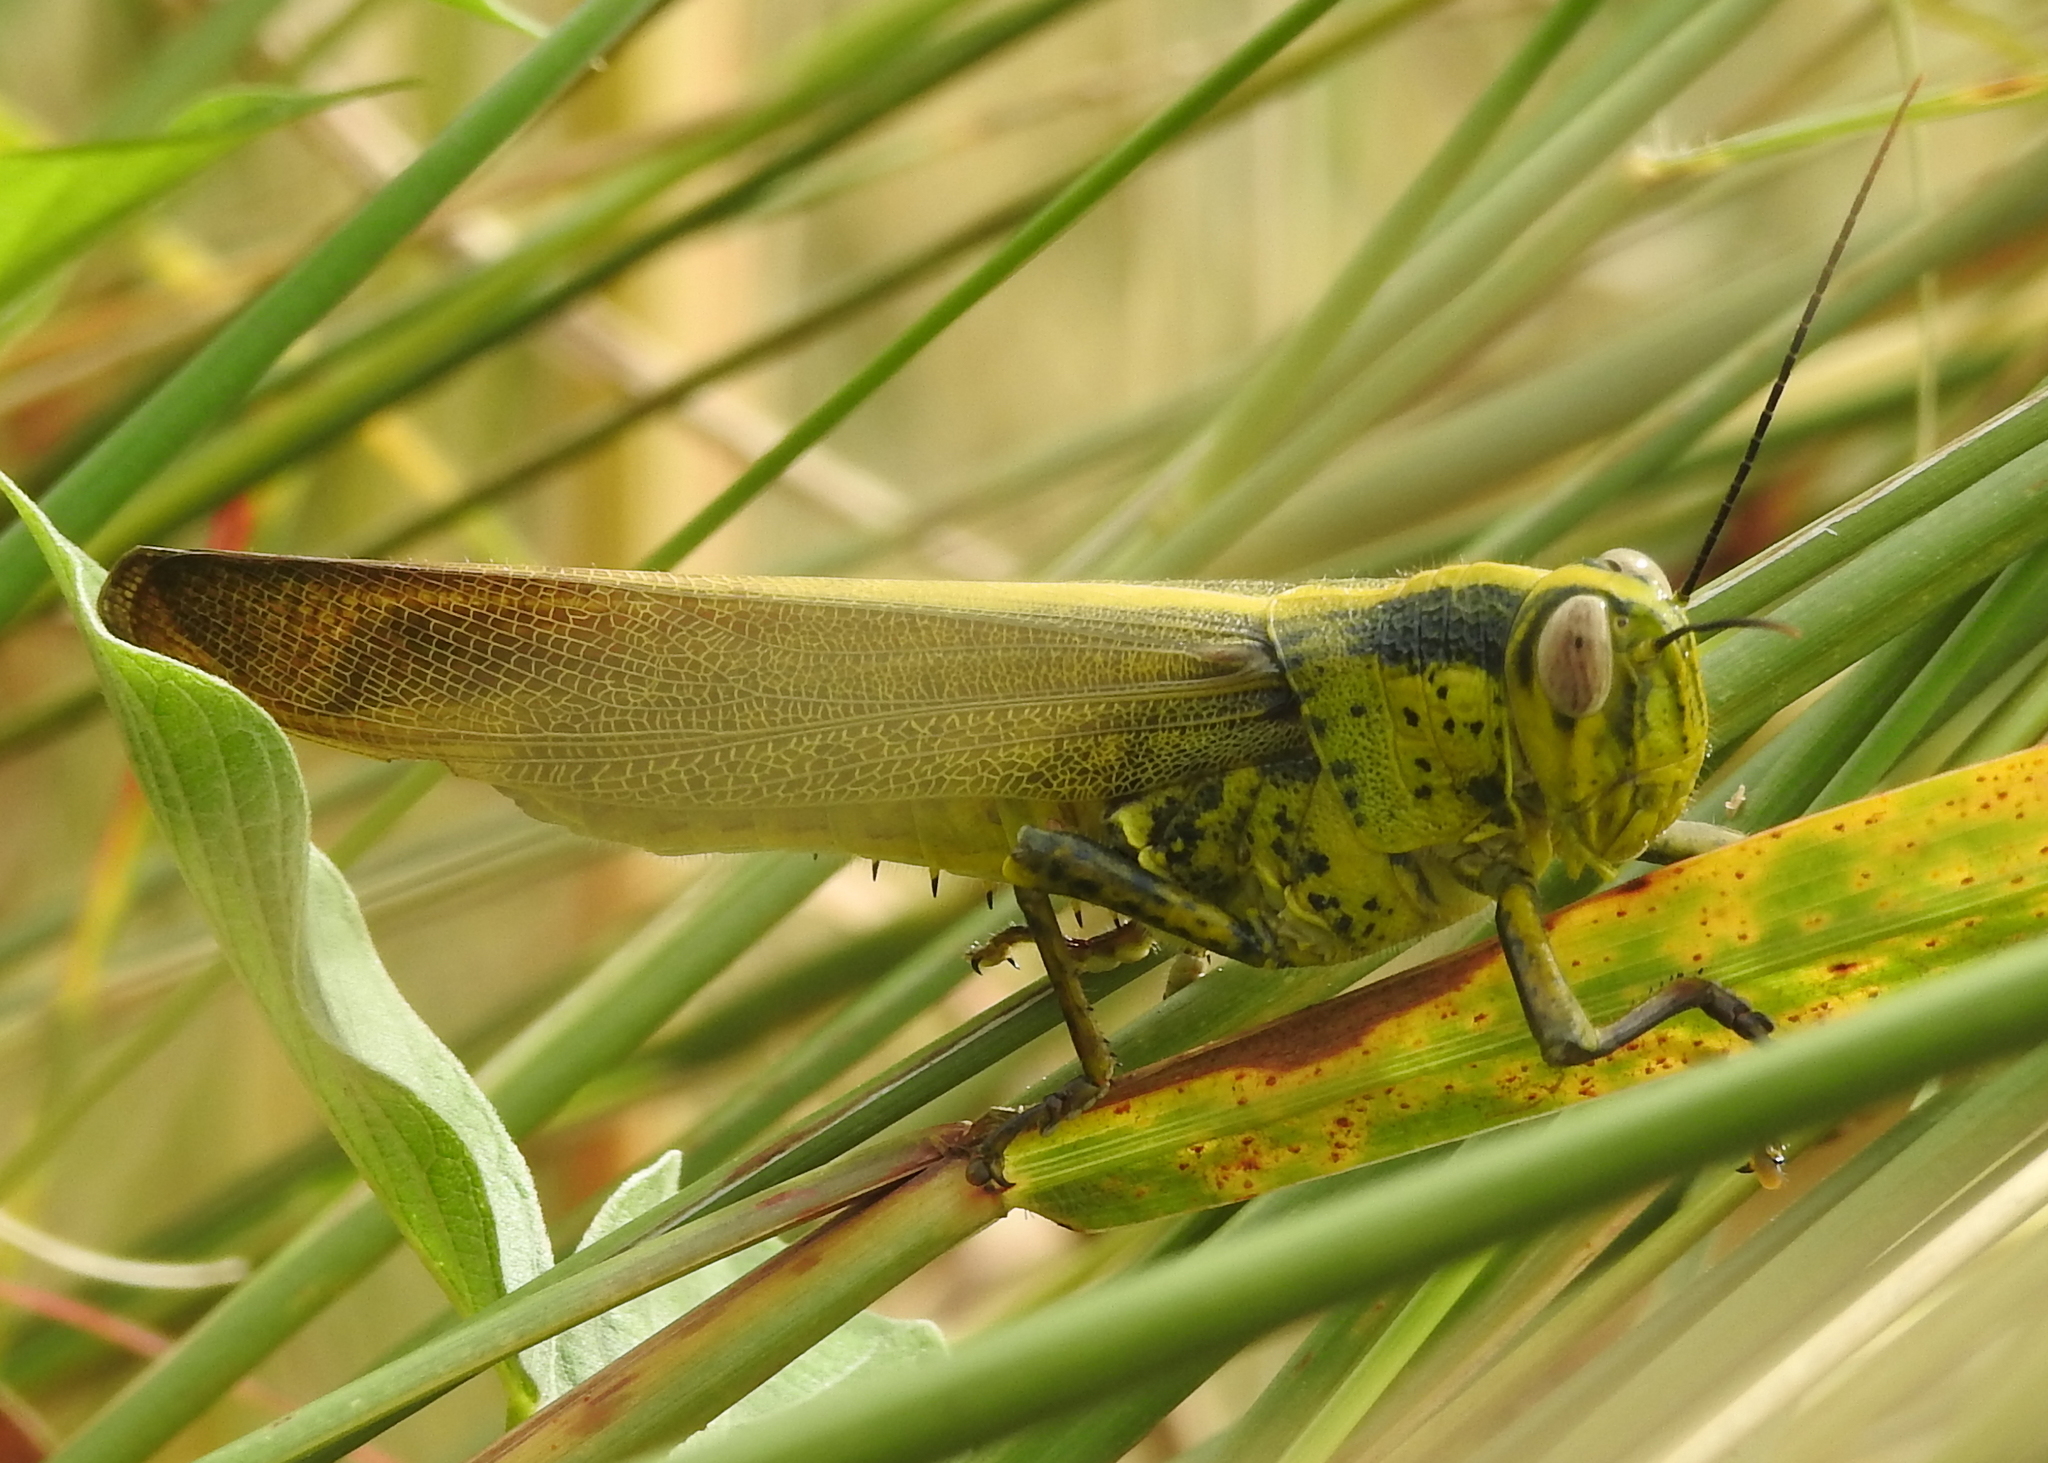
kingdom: Animalia
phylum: Arthropoda
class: Insecta
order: Orthoptera
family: Acrididae
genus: Valanga
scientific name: Valanga nigricornis
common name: Javanese bird grasshopper
